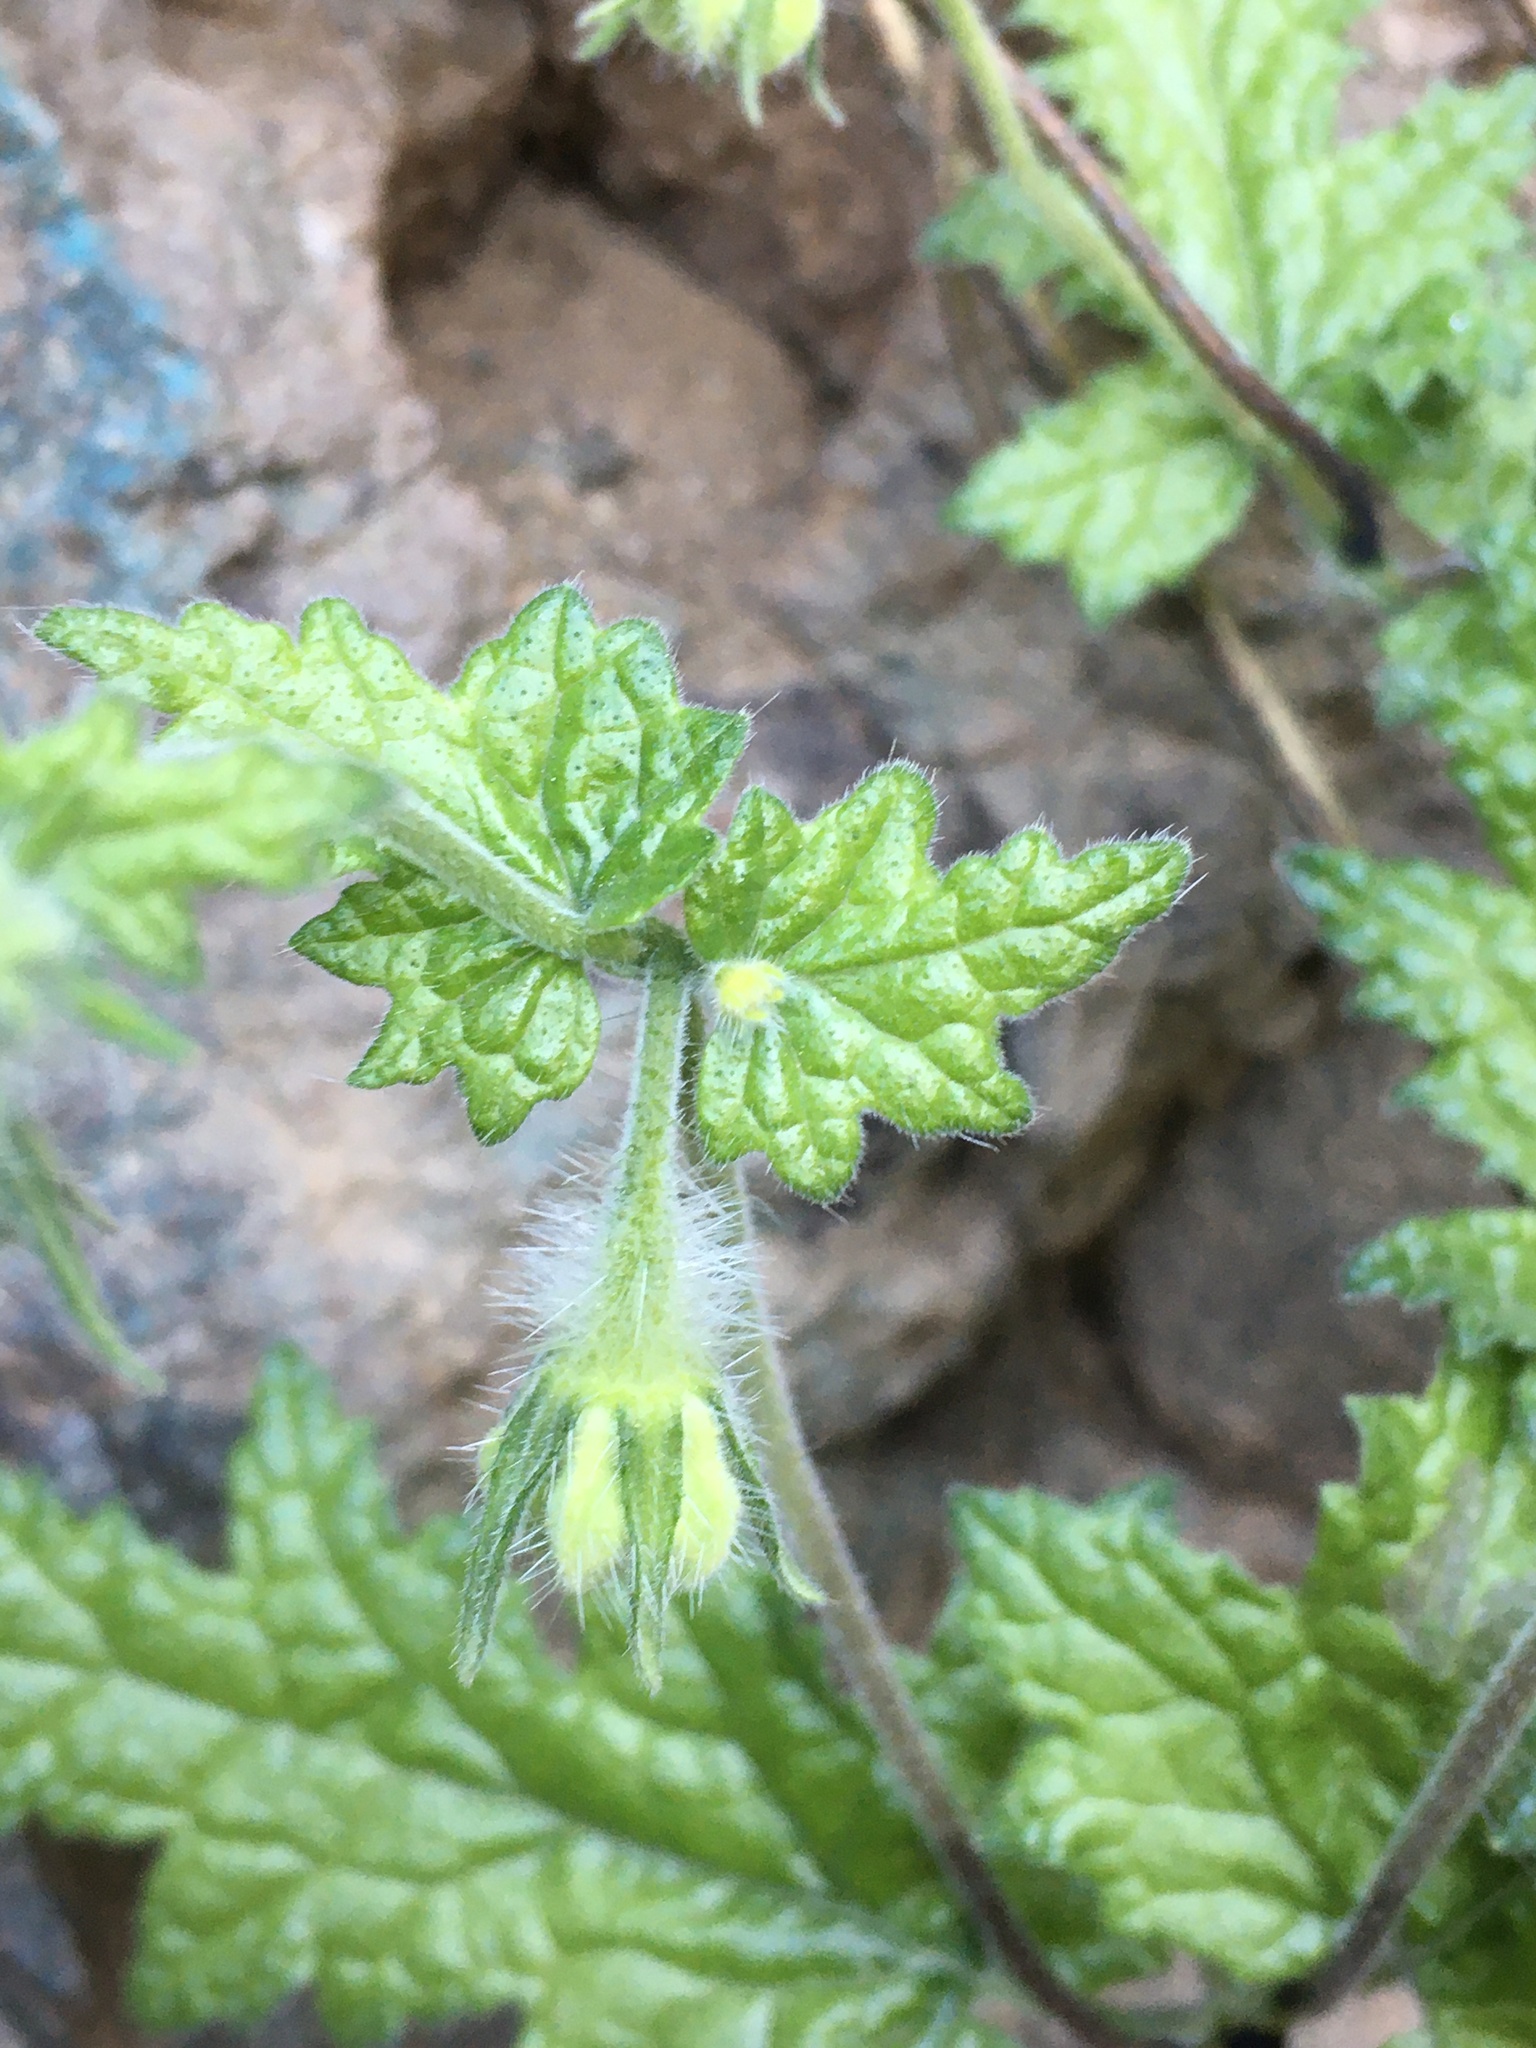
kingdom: Plantae
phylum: Tracheophyta
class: Magnoliopsida
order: Cornales
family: Loasaceae
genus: Blumenbachia
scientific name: Blumenbachia sylvestris
